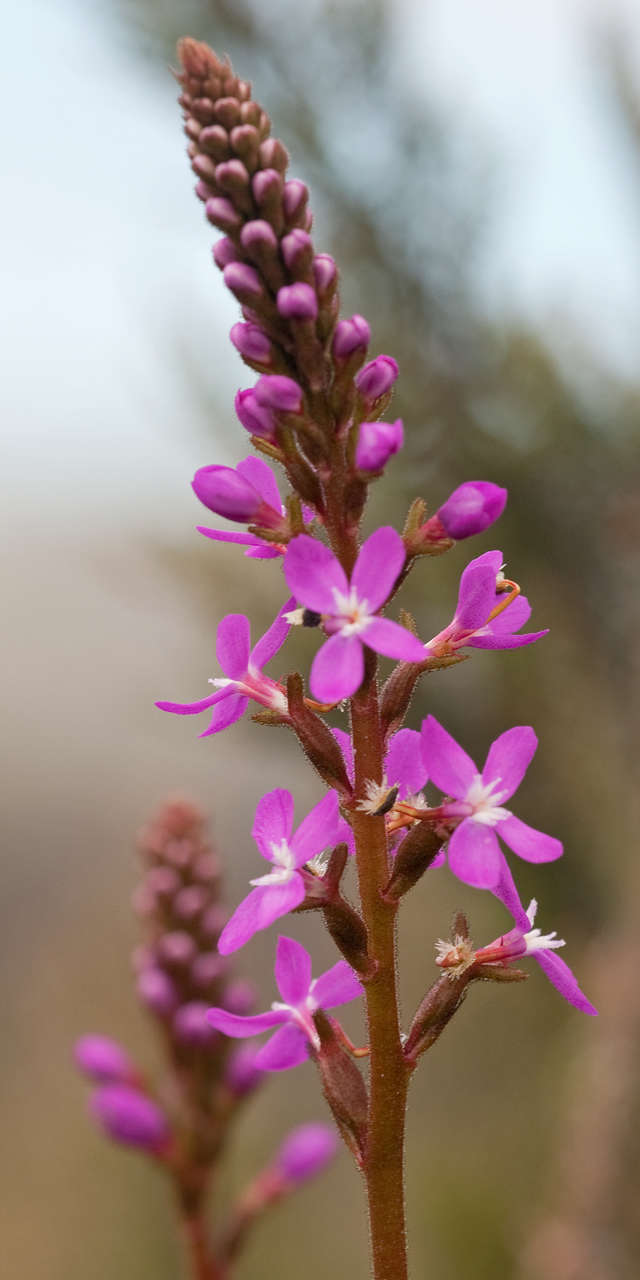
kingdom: Plantae
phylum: Tracheophyta
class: Magnoliopsida
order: Asterales
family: Stylidiaceae
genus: Stylidium
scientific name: Stylidium armeria
